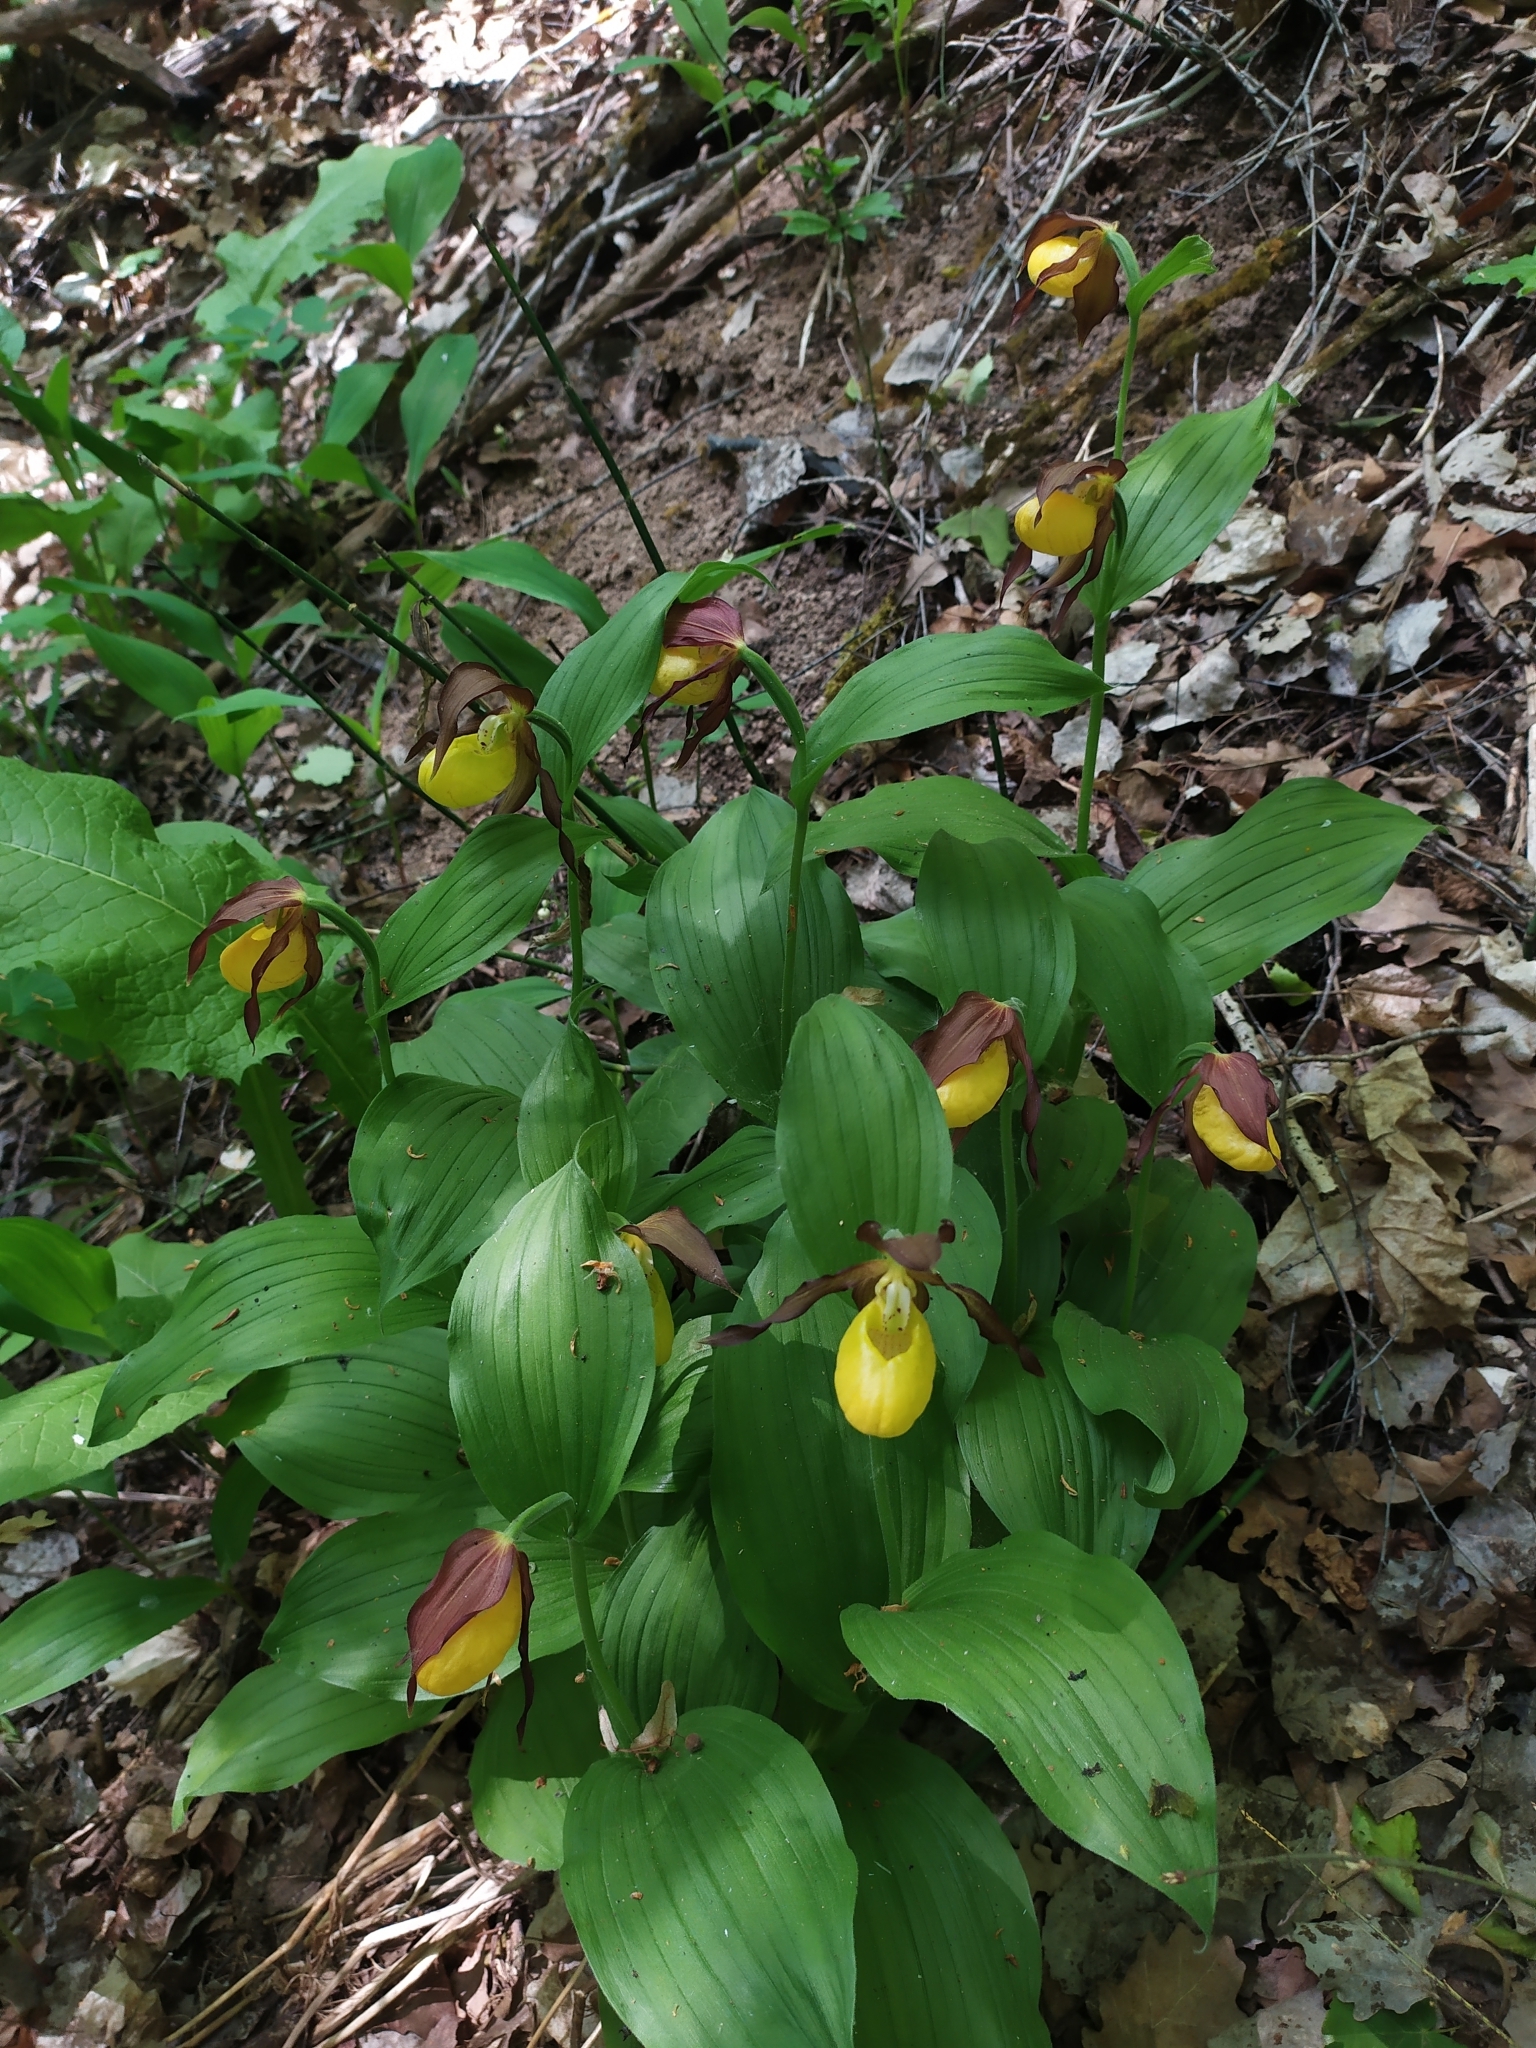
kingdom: Plantae
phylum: Tracheophyta
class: Liliopsida
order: Asparagales
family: Orchidaceae
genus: Cypripedium
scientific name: Cypripedium calceolus
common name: Lady's-slipper
